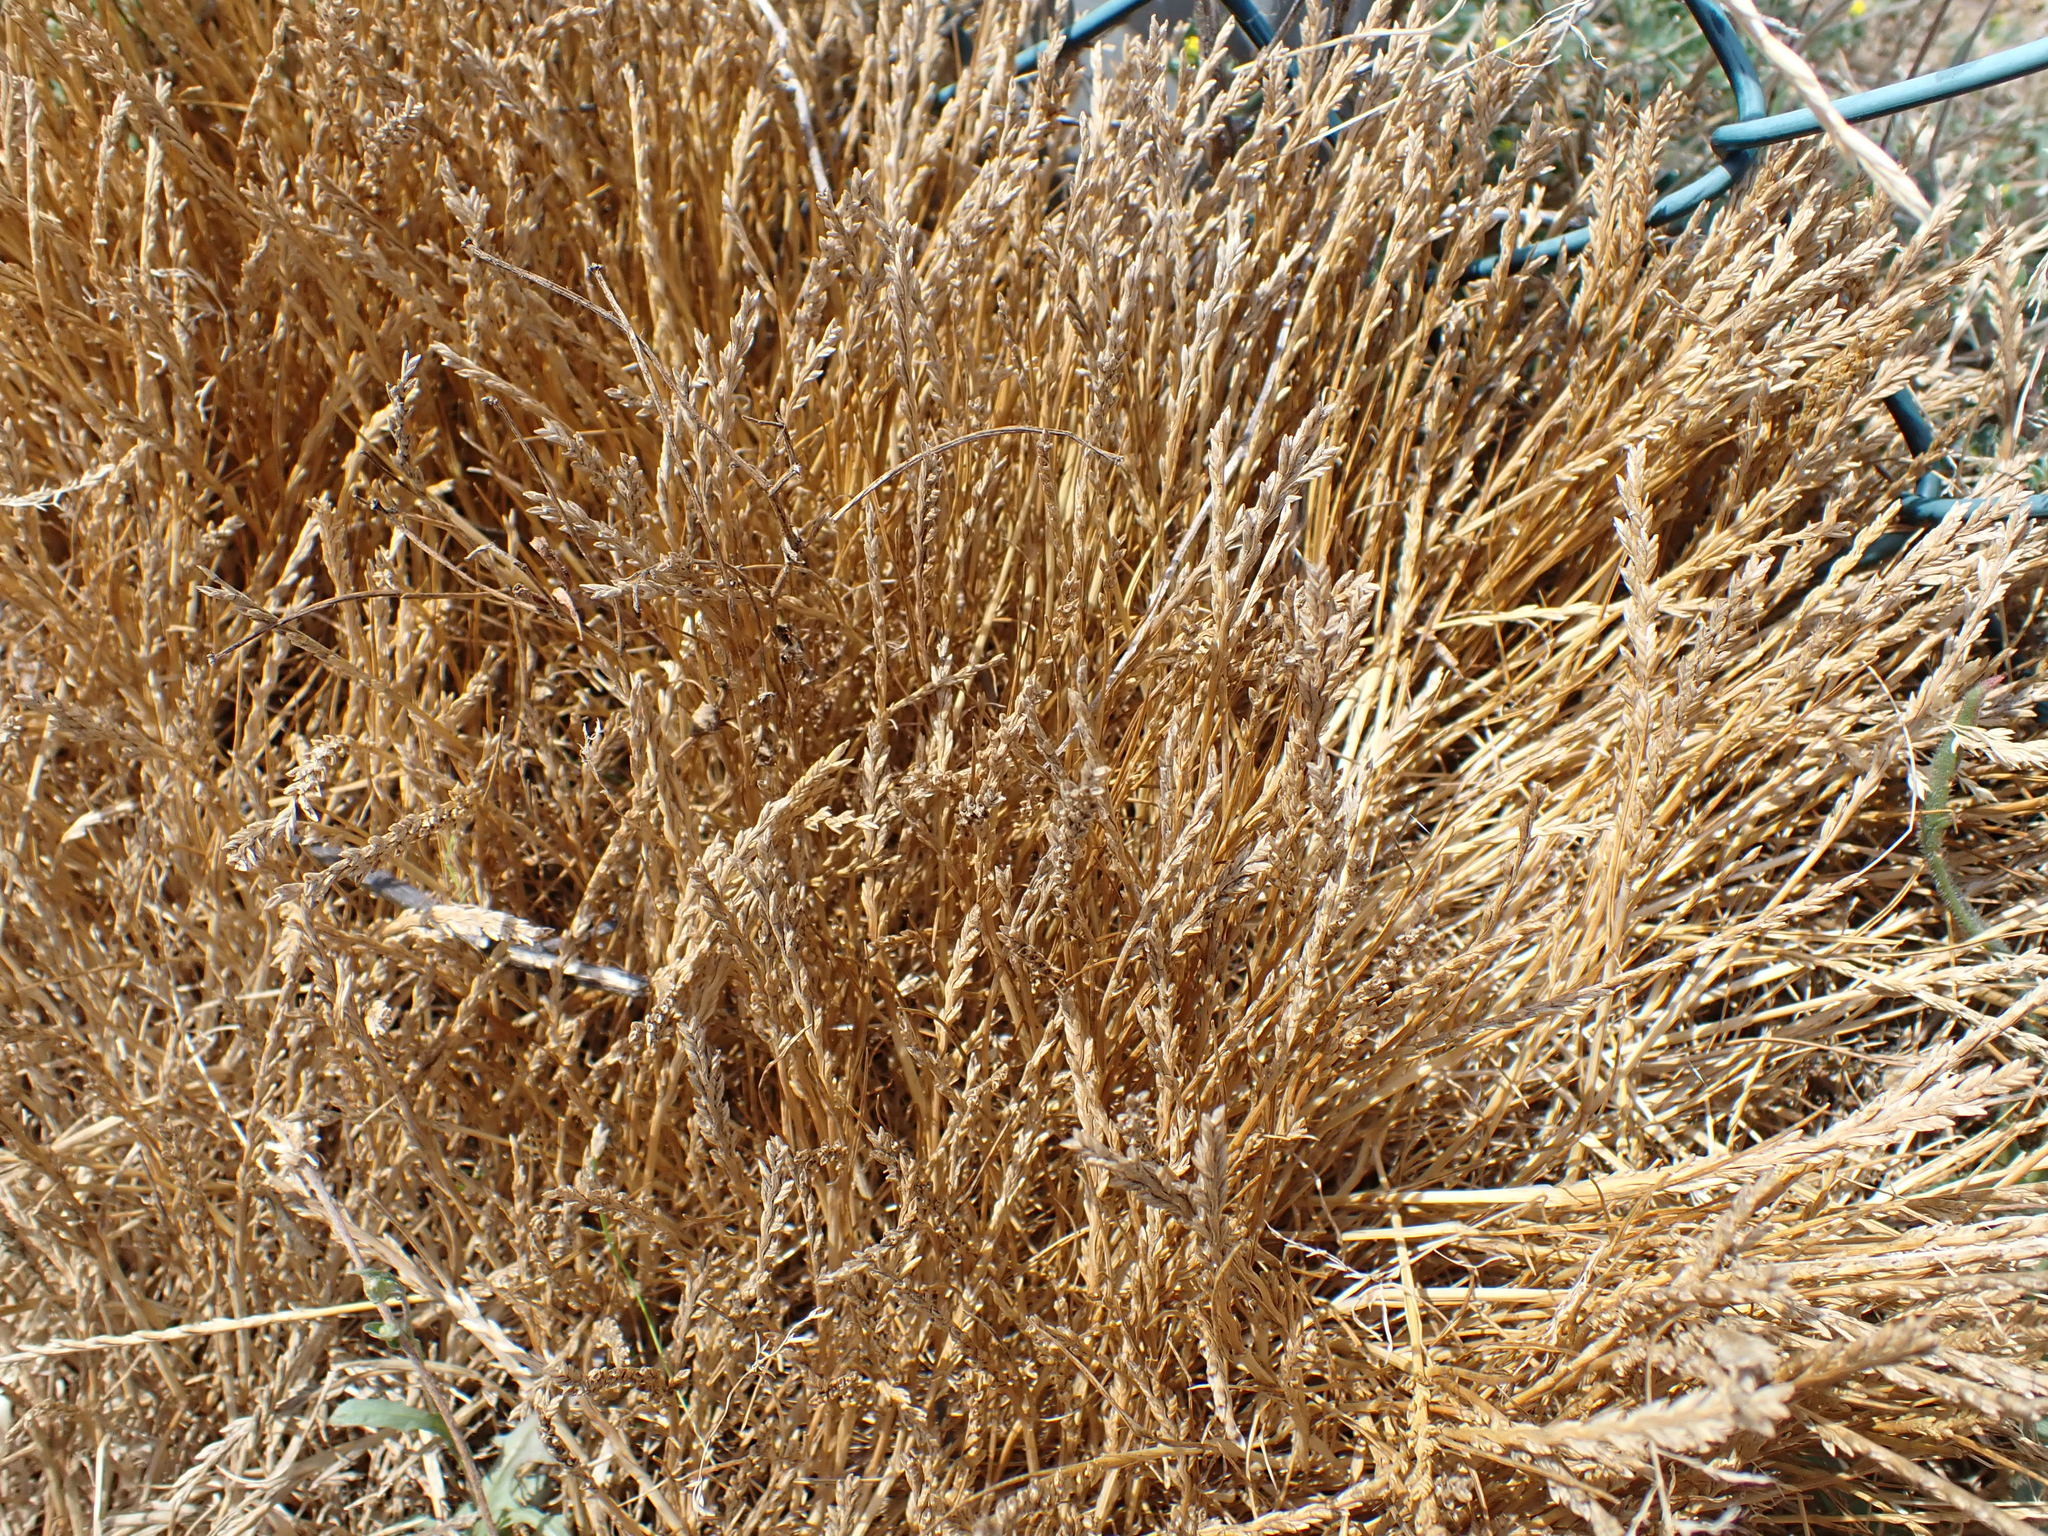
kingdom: Plantae
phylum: Tracheophyta
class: Liliopsida
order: Poales
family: Poaceae
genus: Catapodium
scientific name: Catapodium marinum
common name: Sea fern-grass
